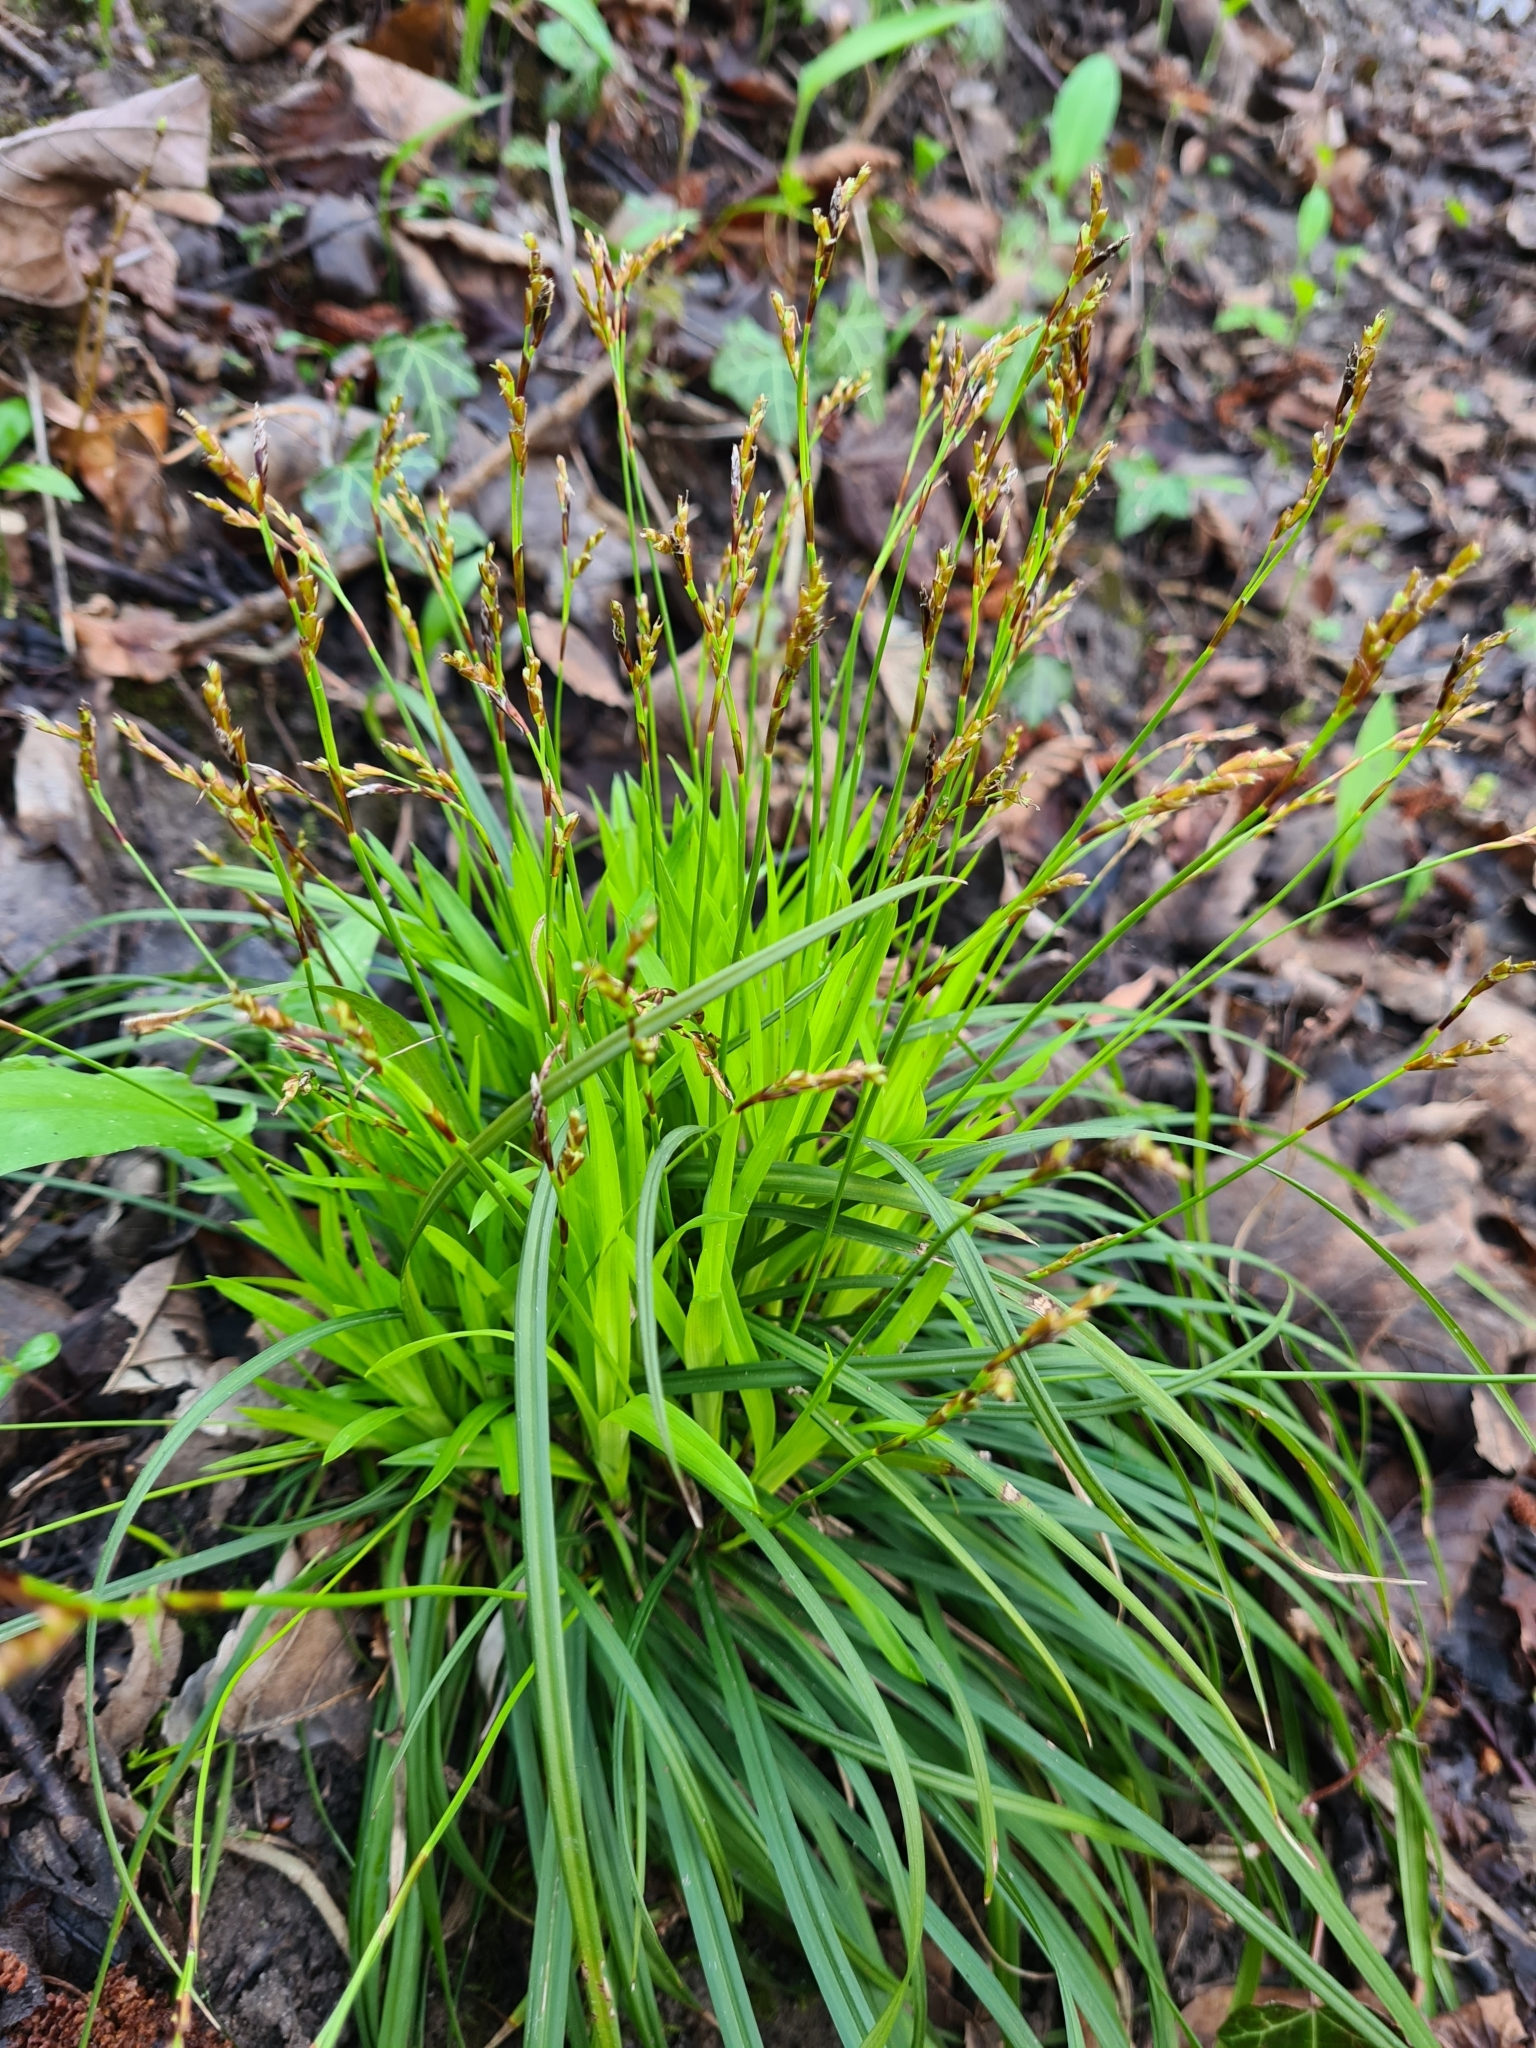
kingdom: Plantae
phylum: Tracheophyta
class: Liliopsida
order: Poales
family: Cyperaceae
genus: Carex
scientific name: Carex digitata
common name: Fingered sedge
